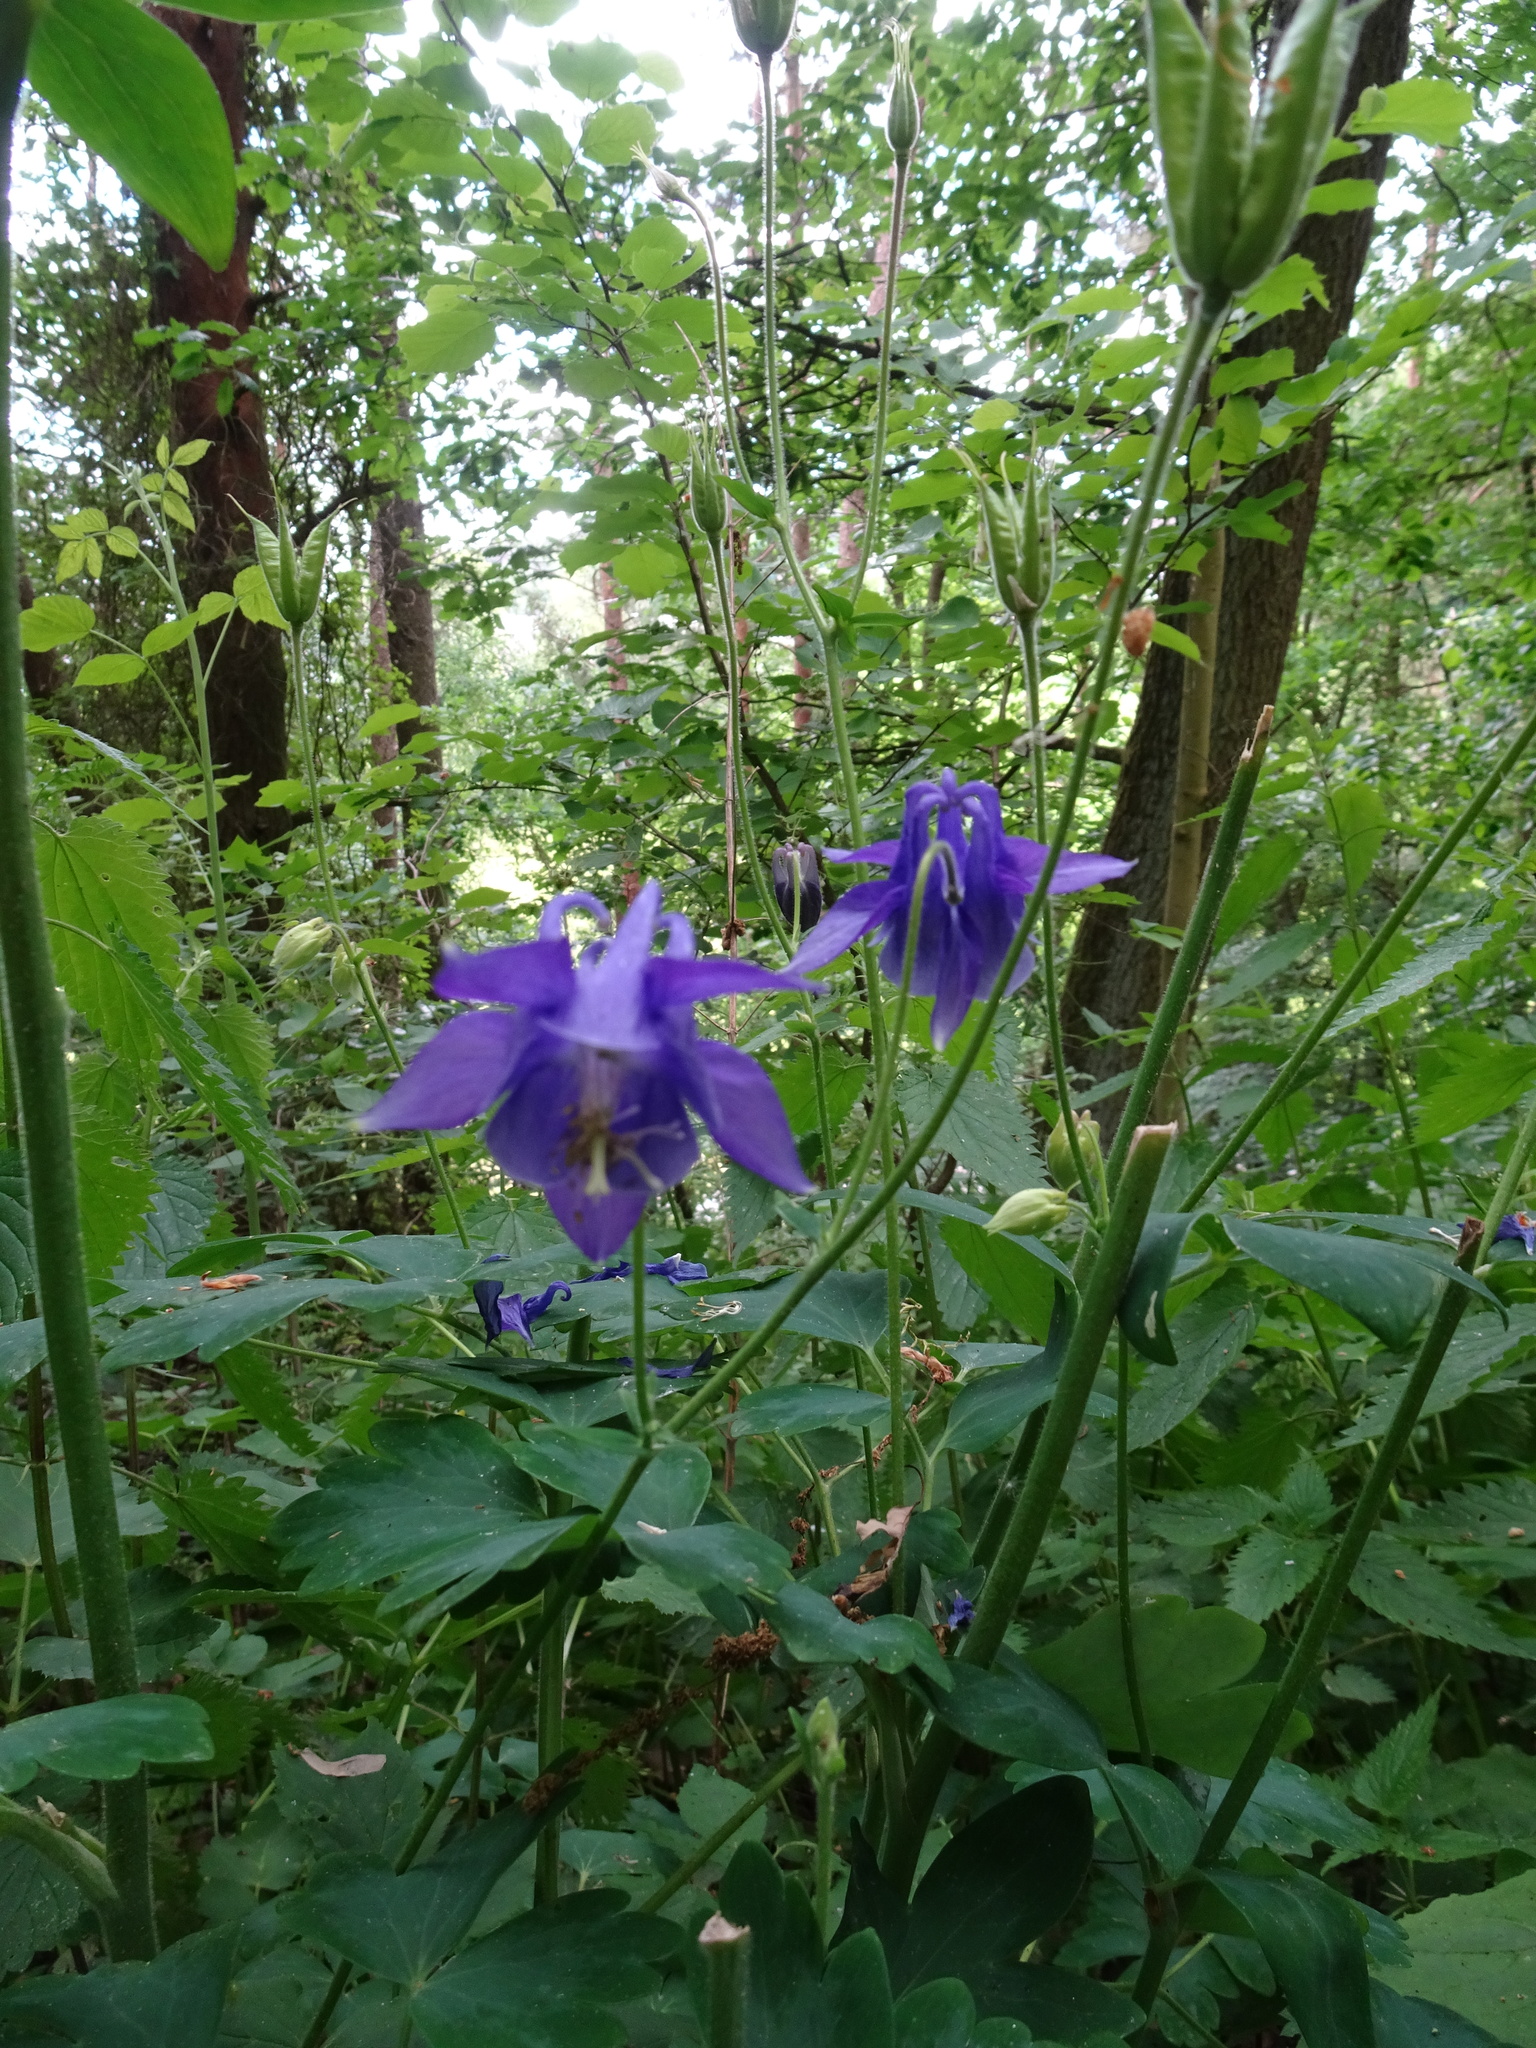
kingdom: Plantae
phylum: Tracheophyta
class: Magnoliopsida
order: Ranunculales
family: Ranunculaceae
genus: Aquilegia
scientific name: Aquilegia
